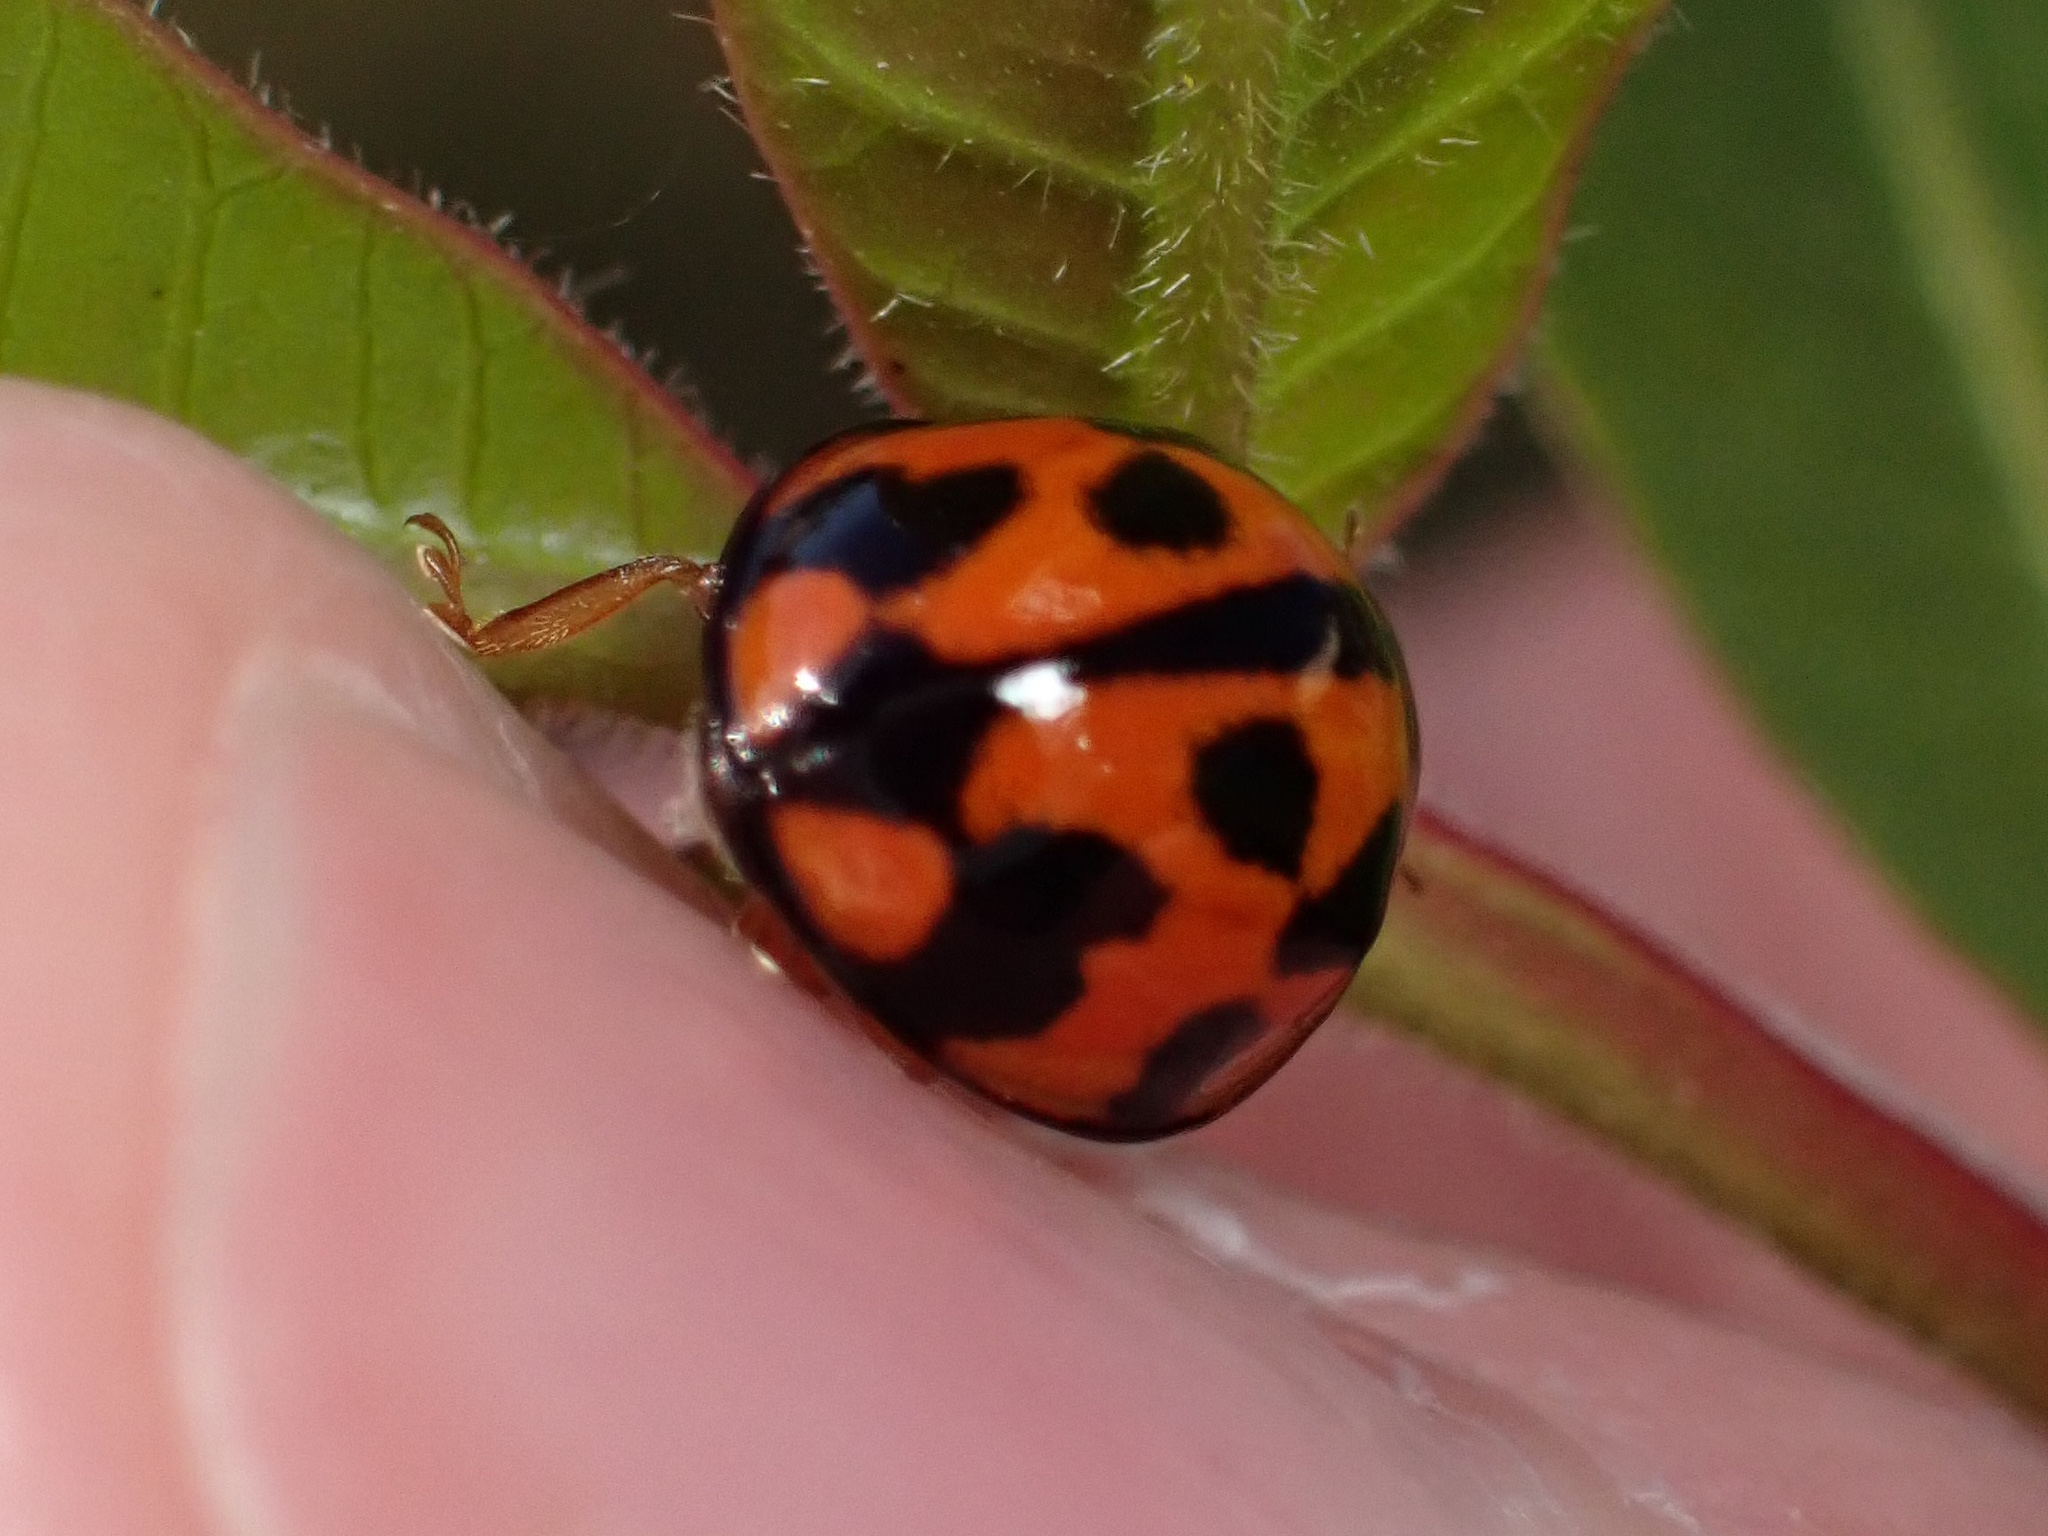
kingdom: Animalia
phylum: Arthropoda
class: Insecta
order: Coleoptera
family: Coccinellidae
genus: Coelophora
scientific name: Coelophora inaequalis
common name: Common australian lady beetle
